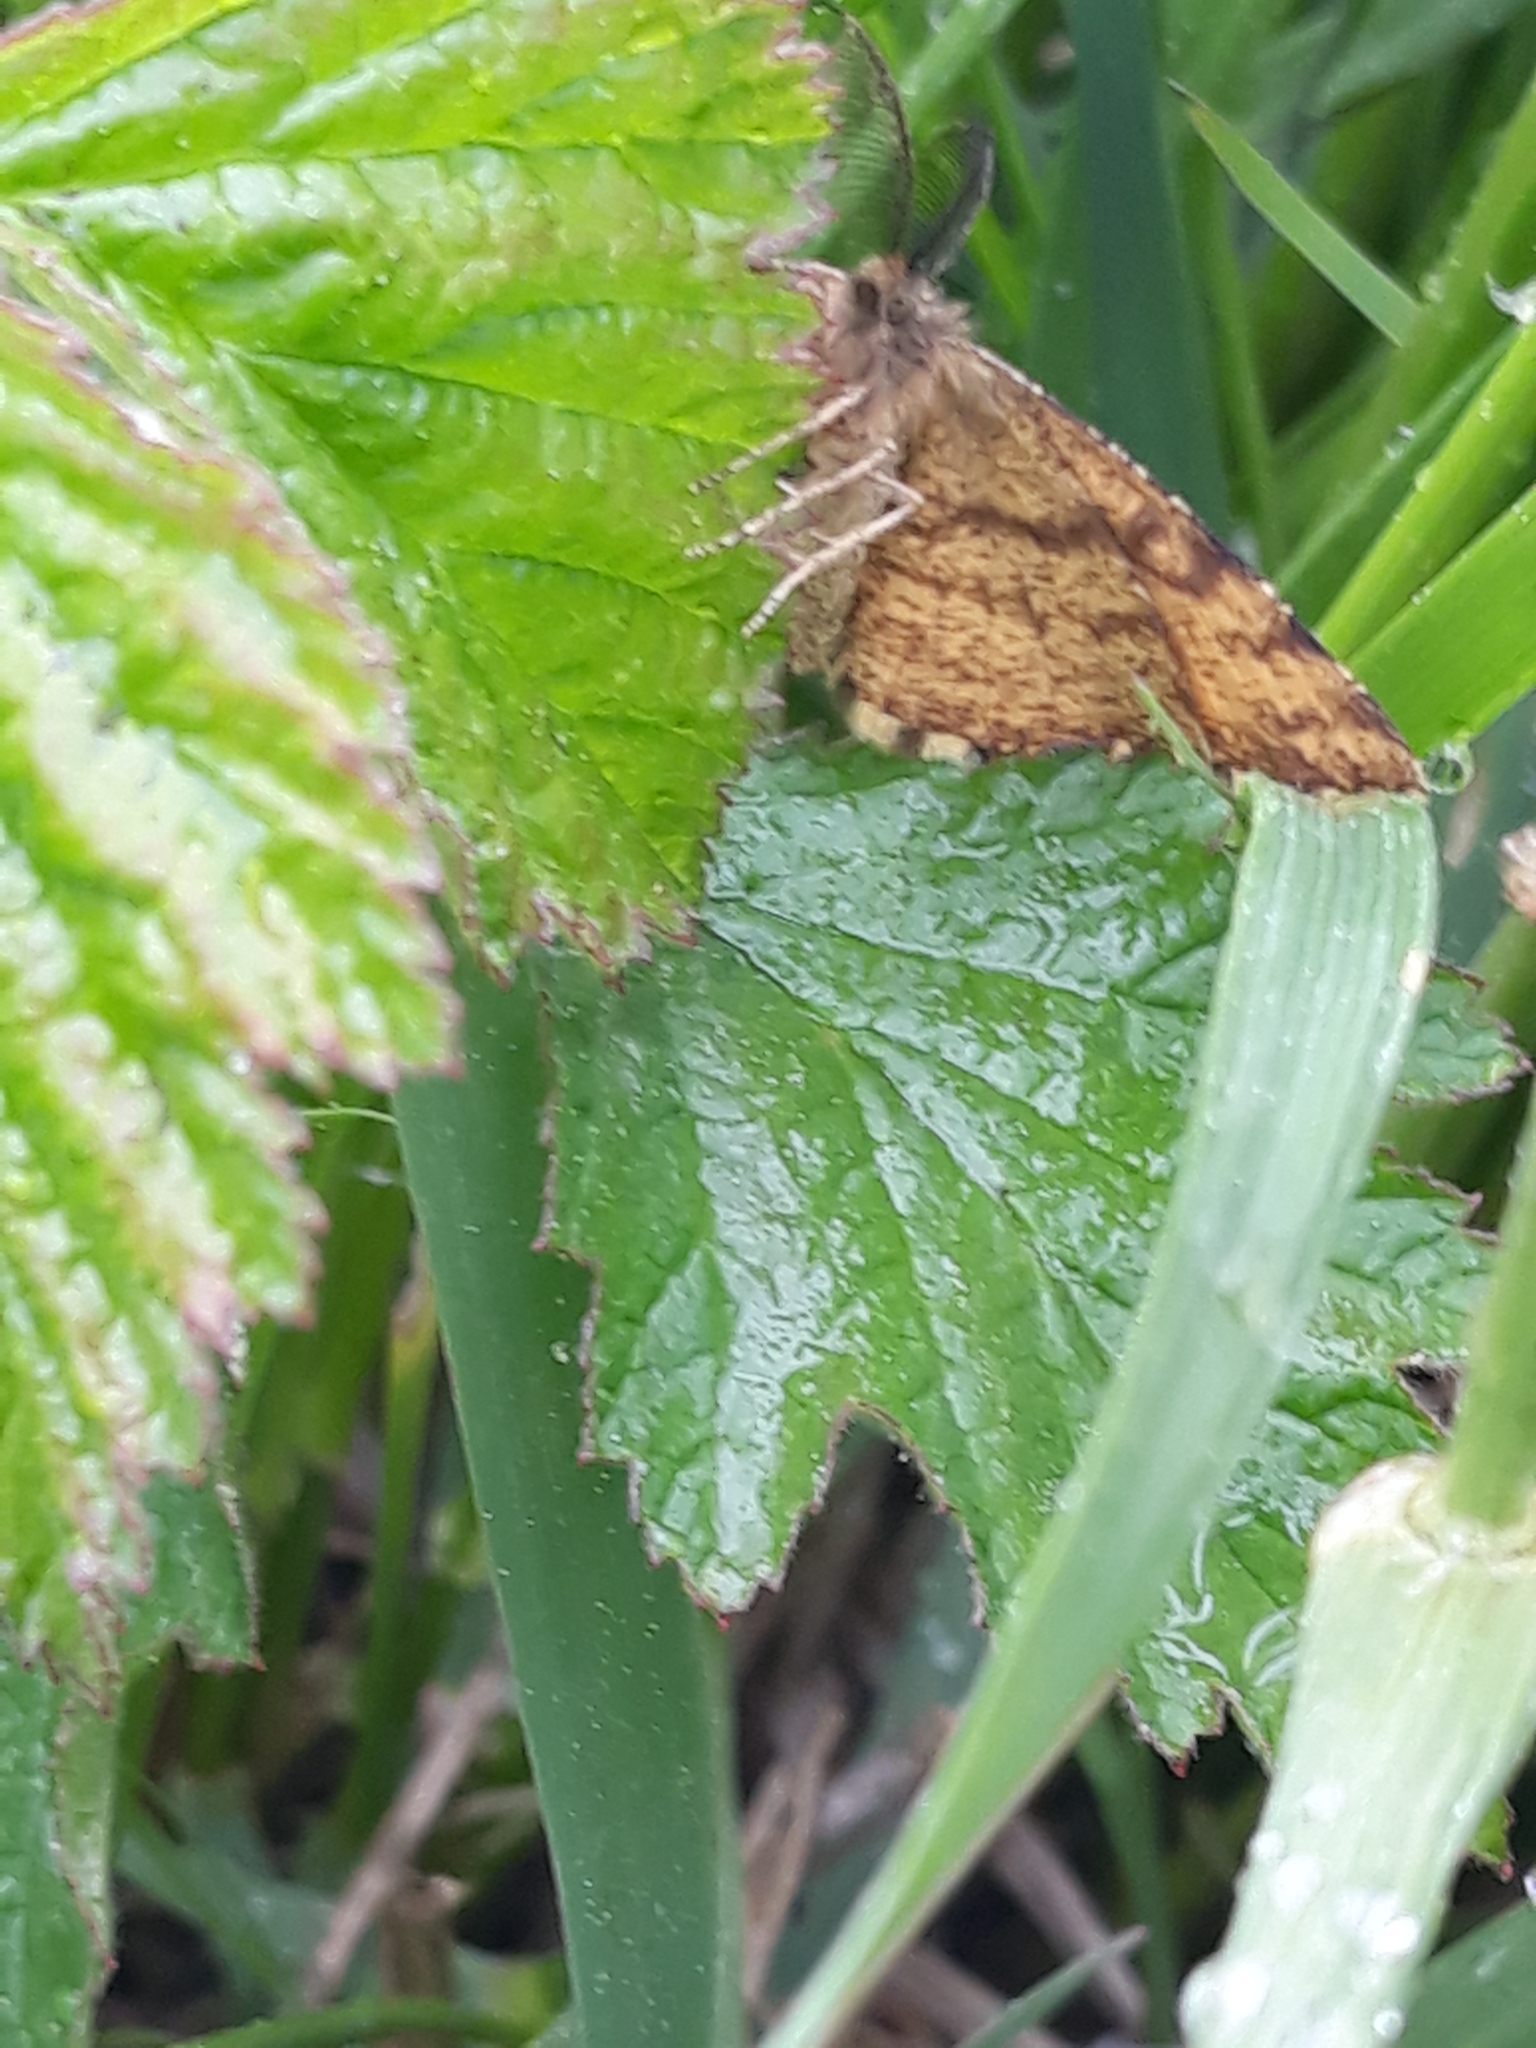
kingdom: Animalia
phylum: Arthropoda
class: Insecta
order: Lepidoptera
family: Geometridae
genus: Ematurga
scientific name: Ematurga atomaria
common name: Common heath
